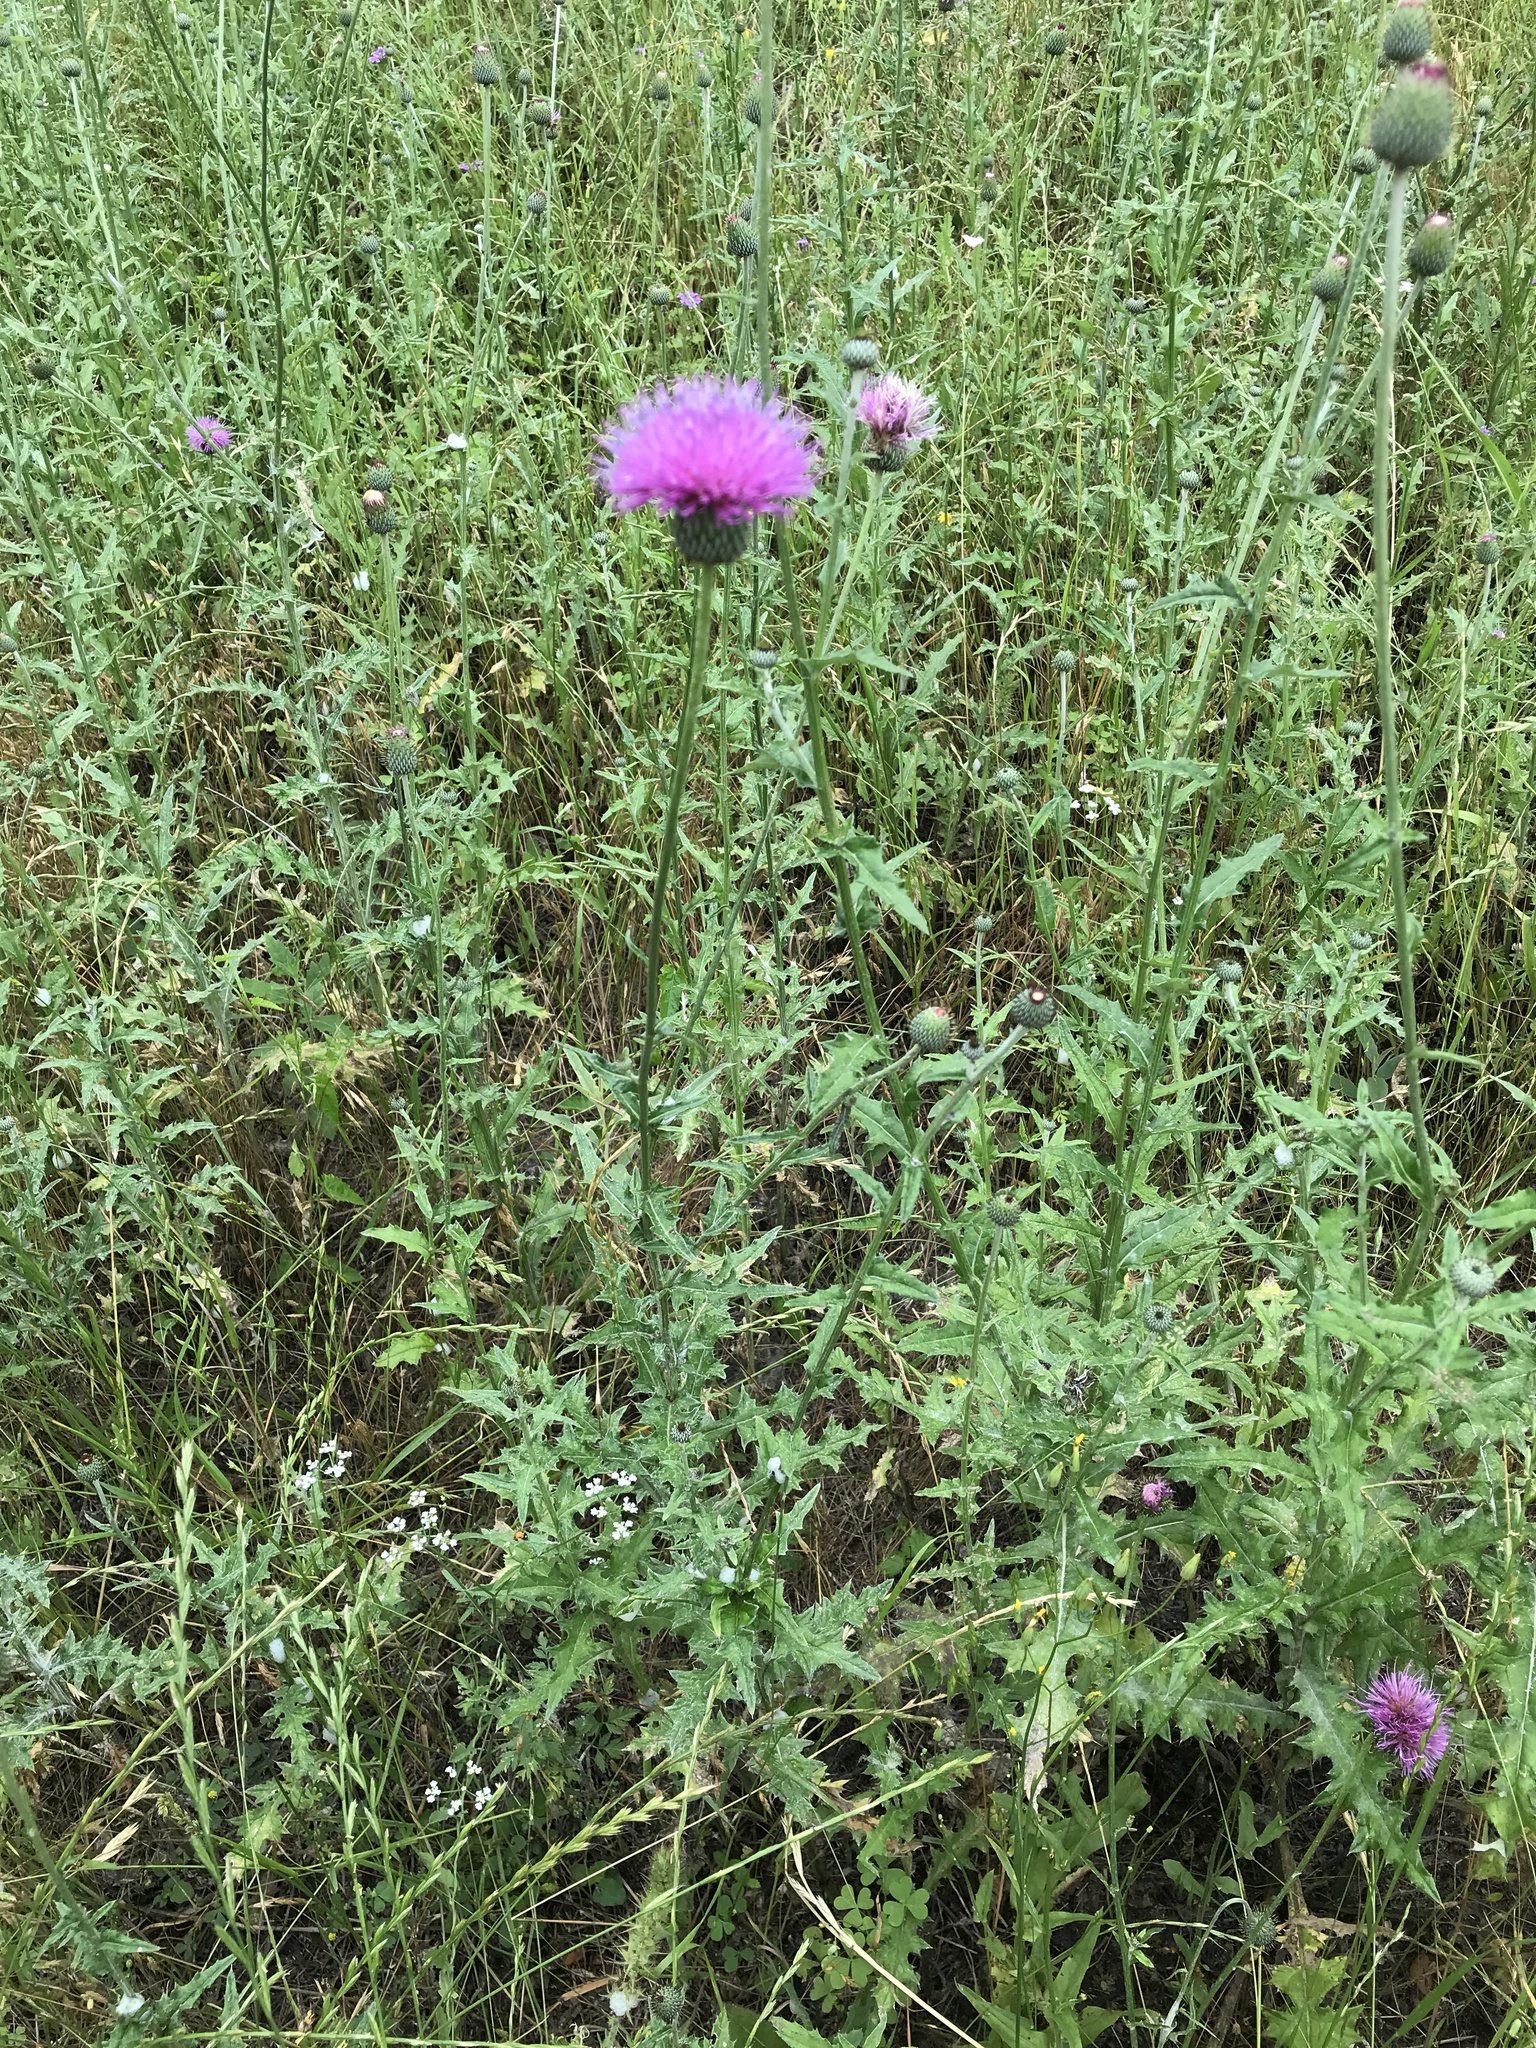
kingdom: Plantae
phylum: Tracheophyta
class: Magnoliopsida
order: Asterales
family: Asteraceae
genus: Cirsium
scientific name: Cirsium texanum
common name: Texas purple thistle
